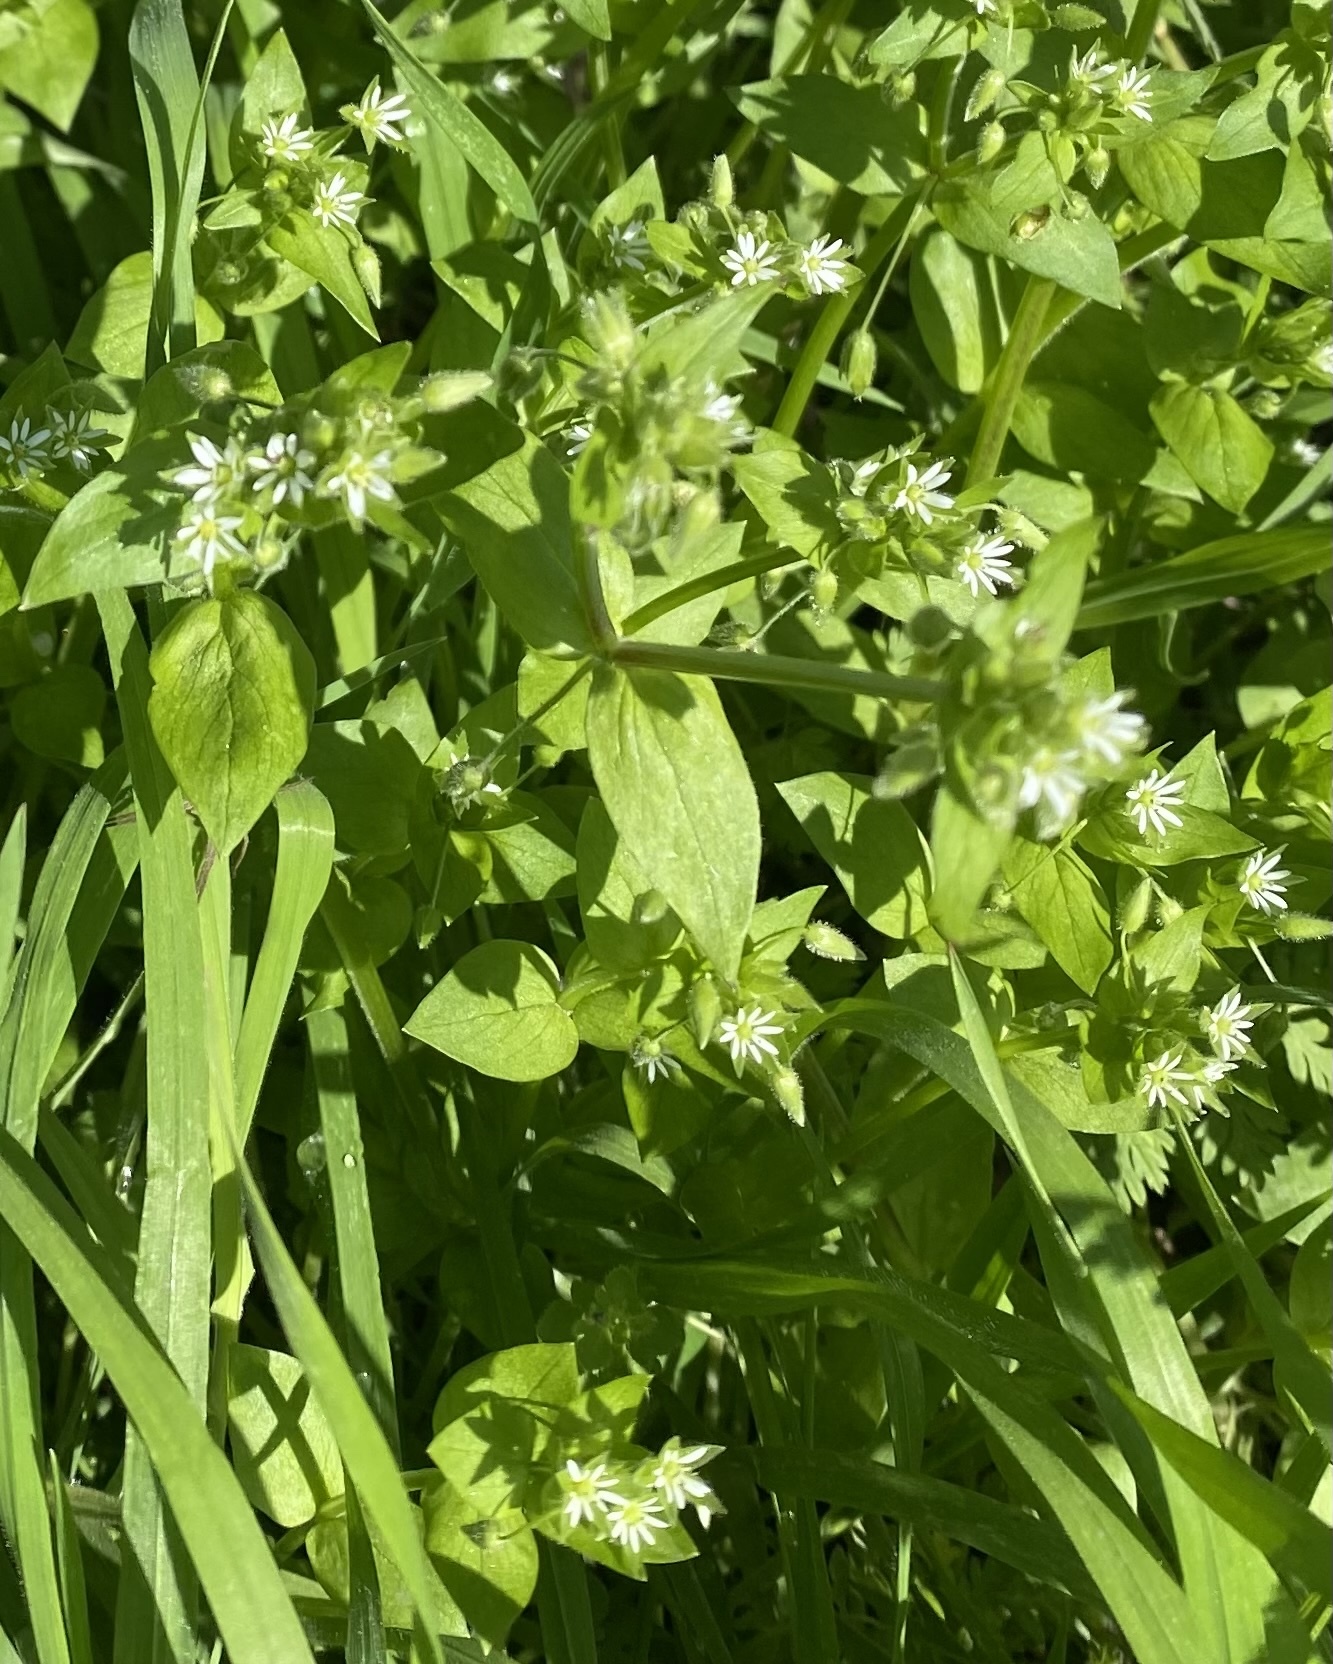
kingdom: Plantae
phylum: Tracheophyta
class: Magnoliopsida
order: Caryophyllales
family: Caryophyllaceae
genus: Stellaria
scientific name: Stellaria media
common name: Common chickweed
